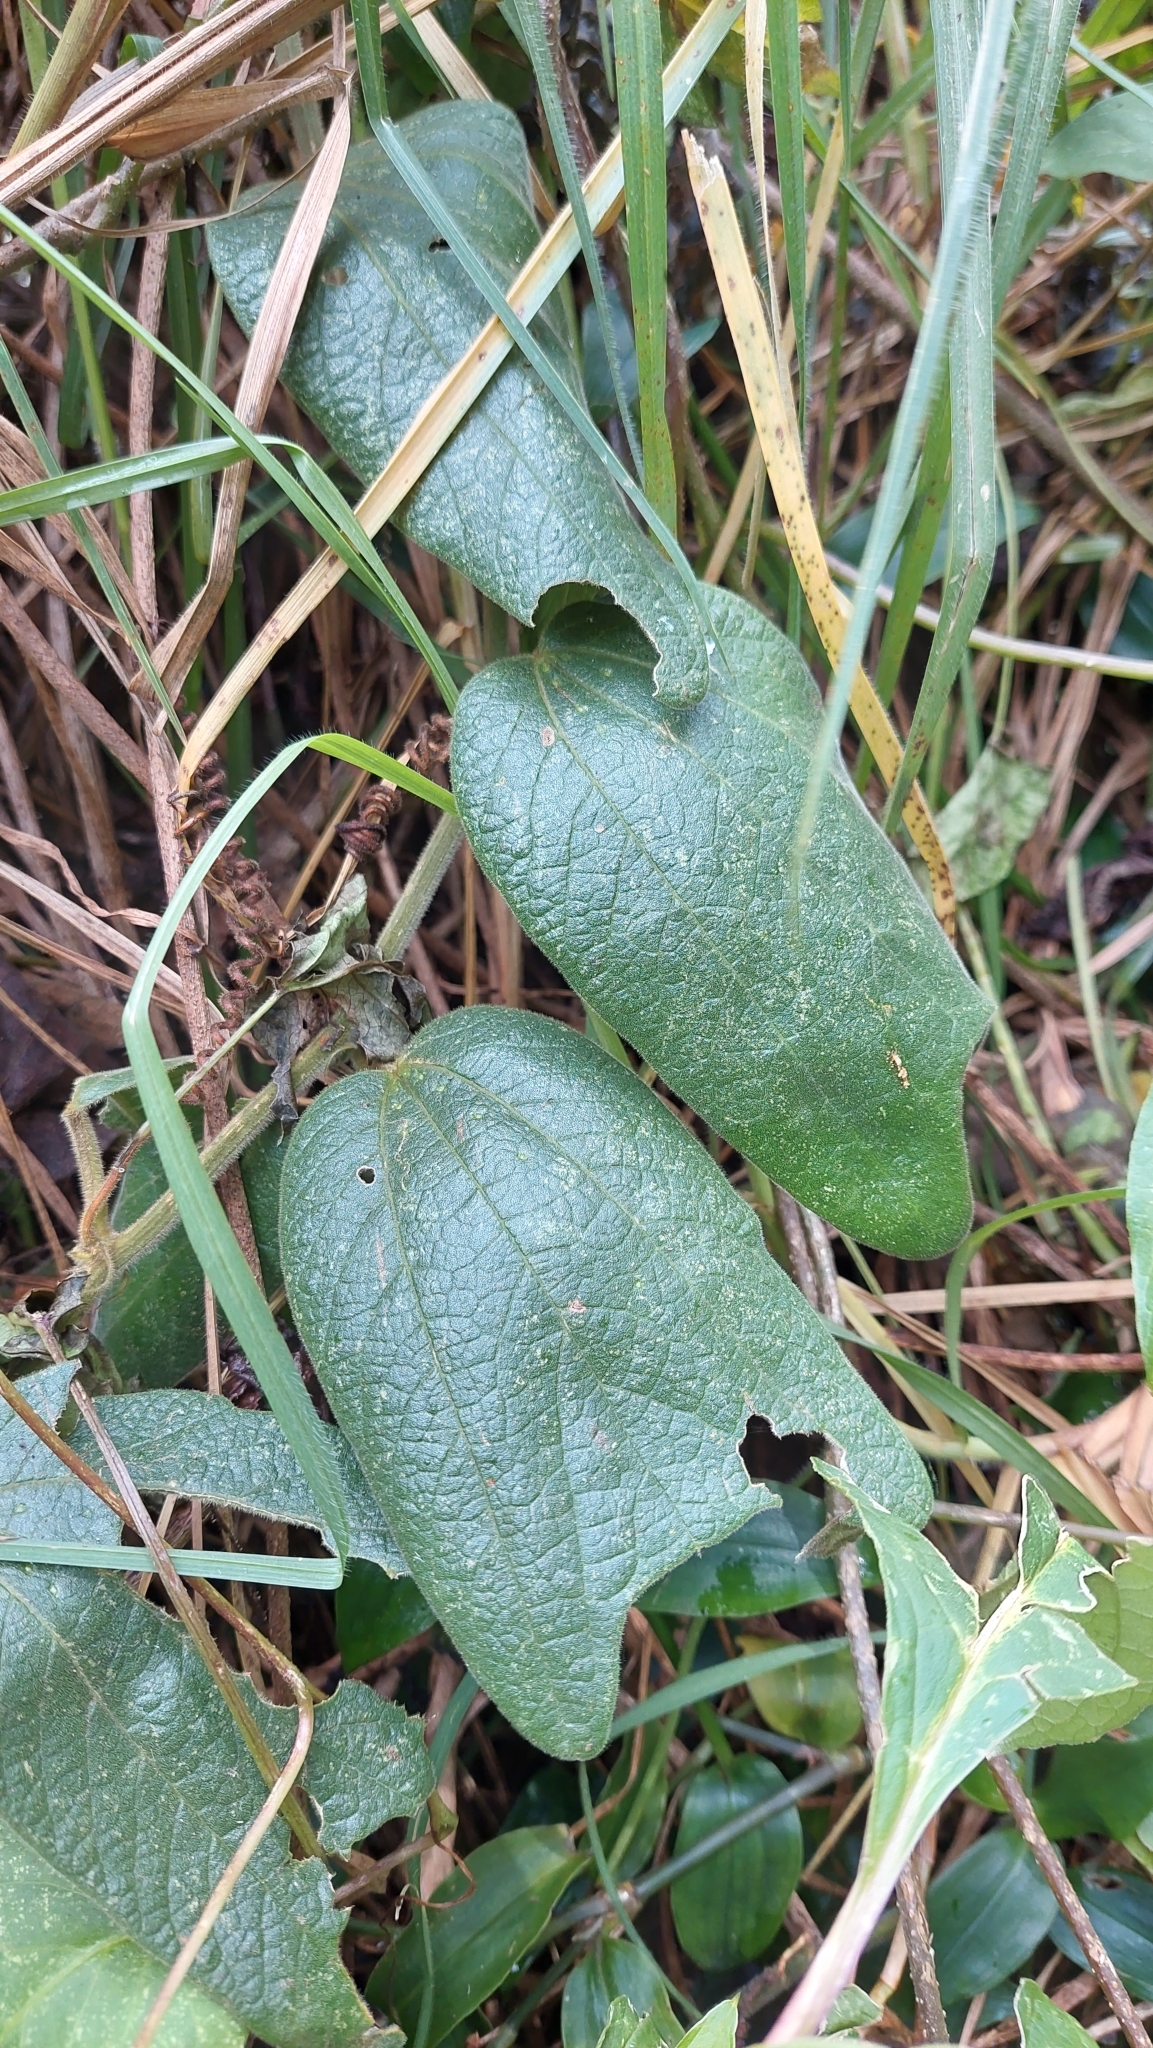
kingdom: Plantae
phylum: Tracheophyta
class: Magnoliopsida
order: Malpighiales
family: Passifloraceae
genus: Passiflora
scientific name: Passiflora bogotensis
